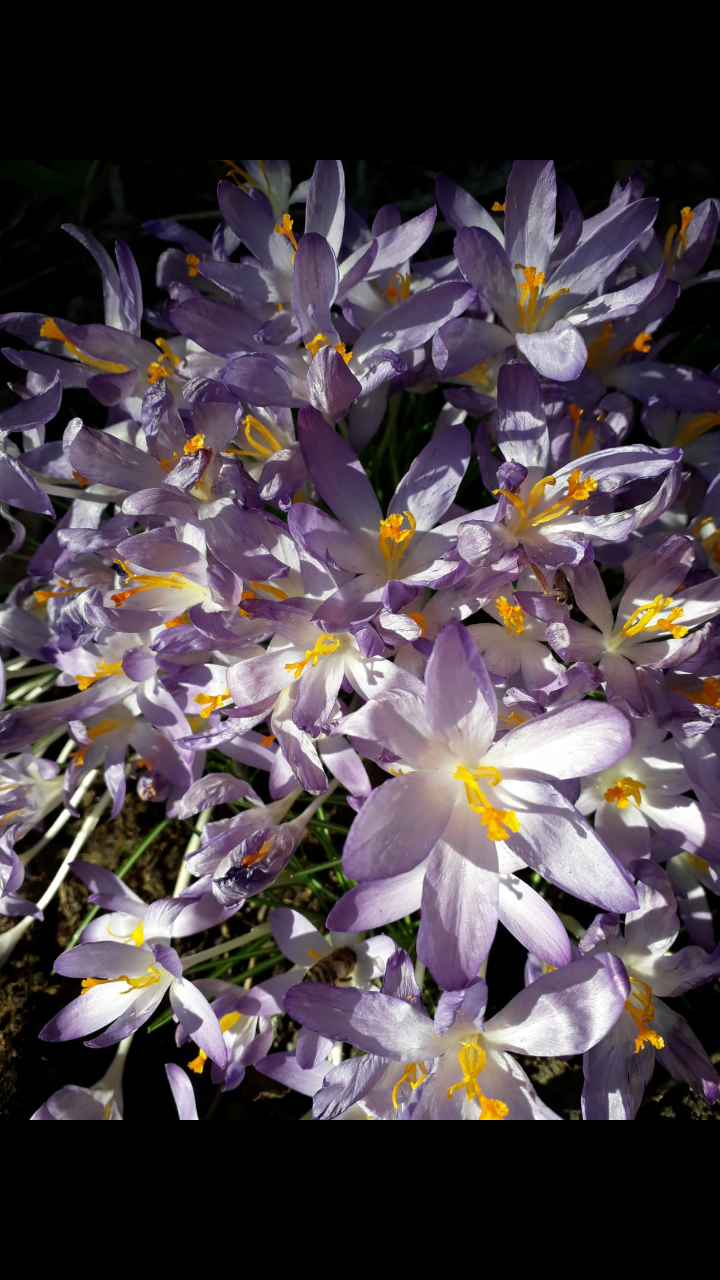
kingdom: Plantae
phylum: Tracheophyta
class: Liliopsida
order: Asparagales
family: Iridaceae
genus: Crocus
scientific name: Crocus tommasinianus
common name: Early crocus
